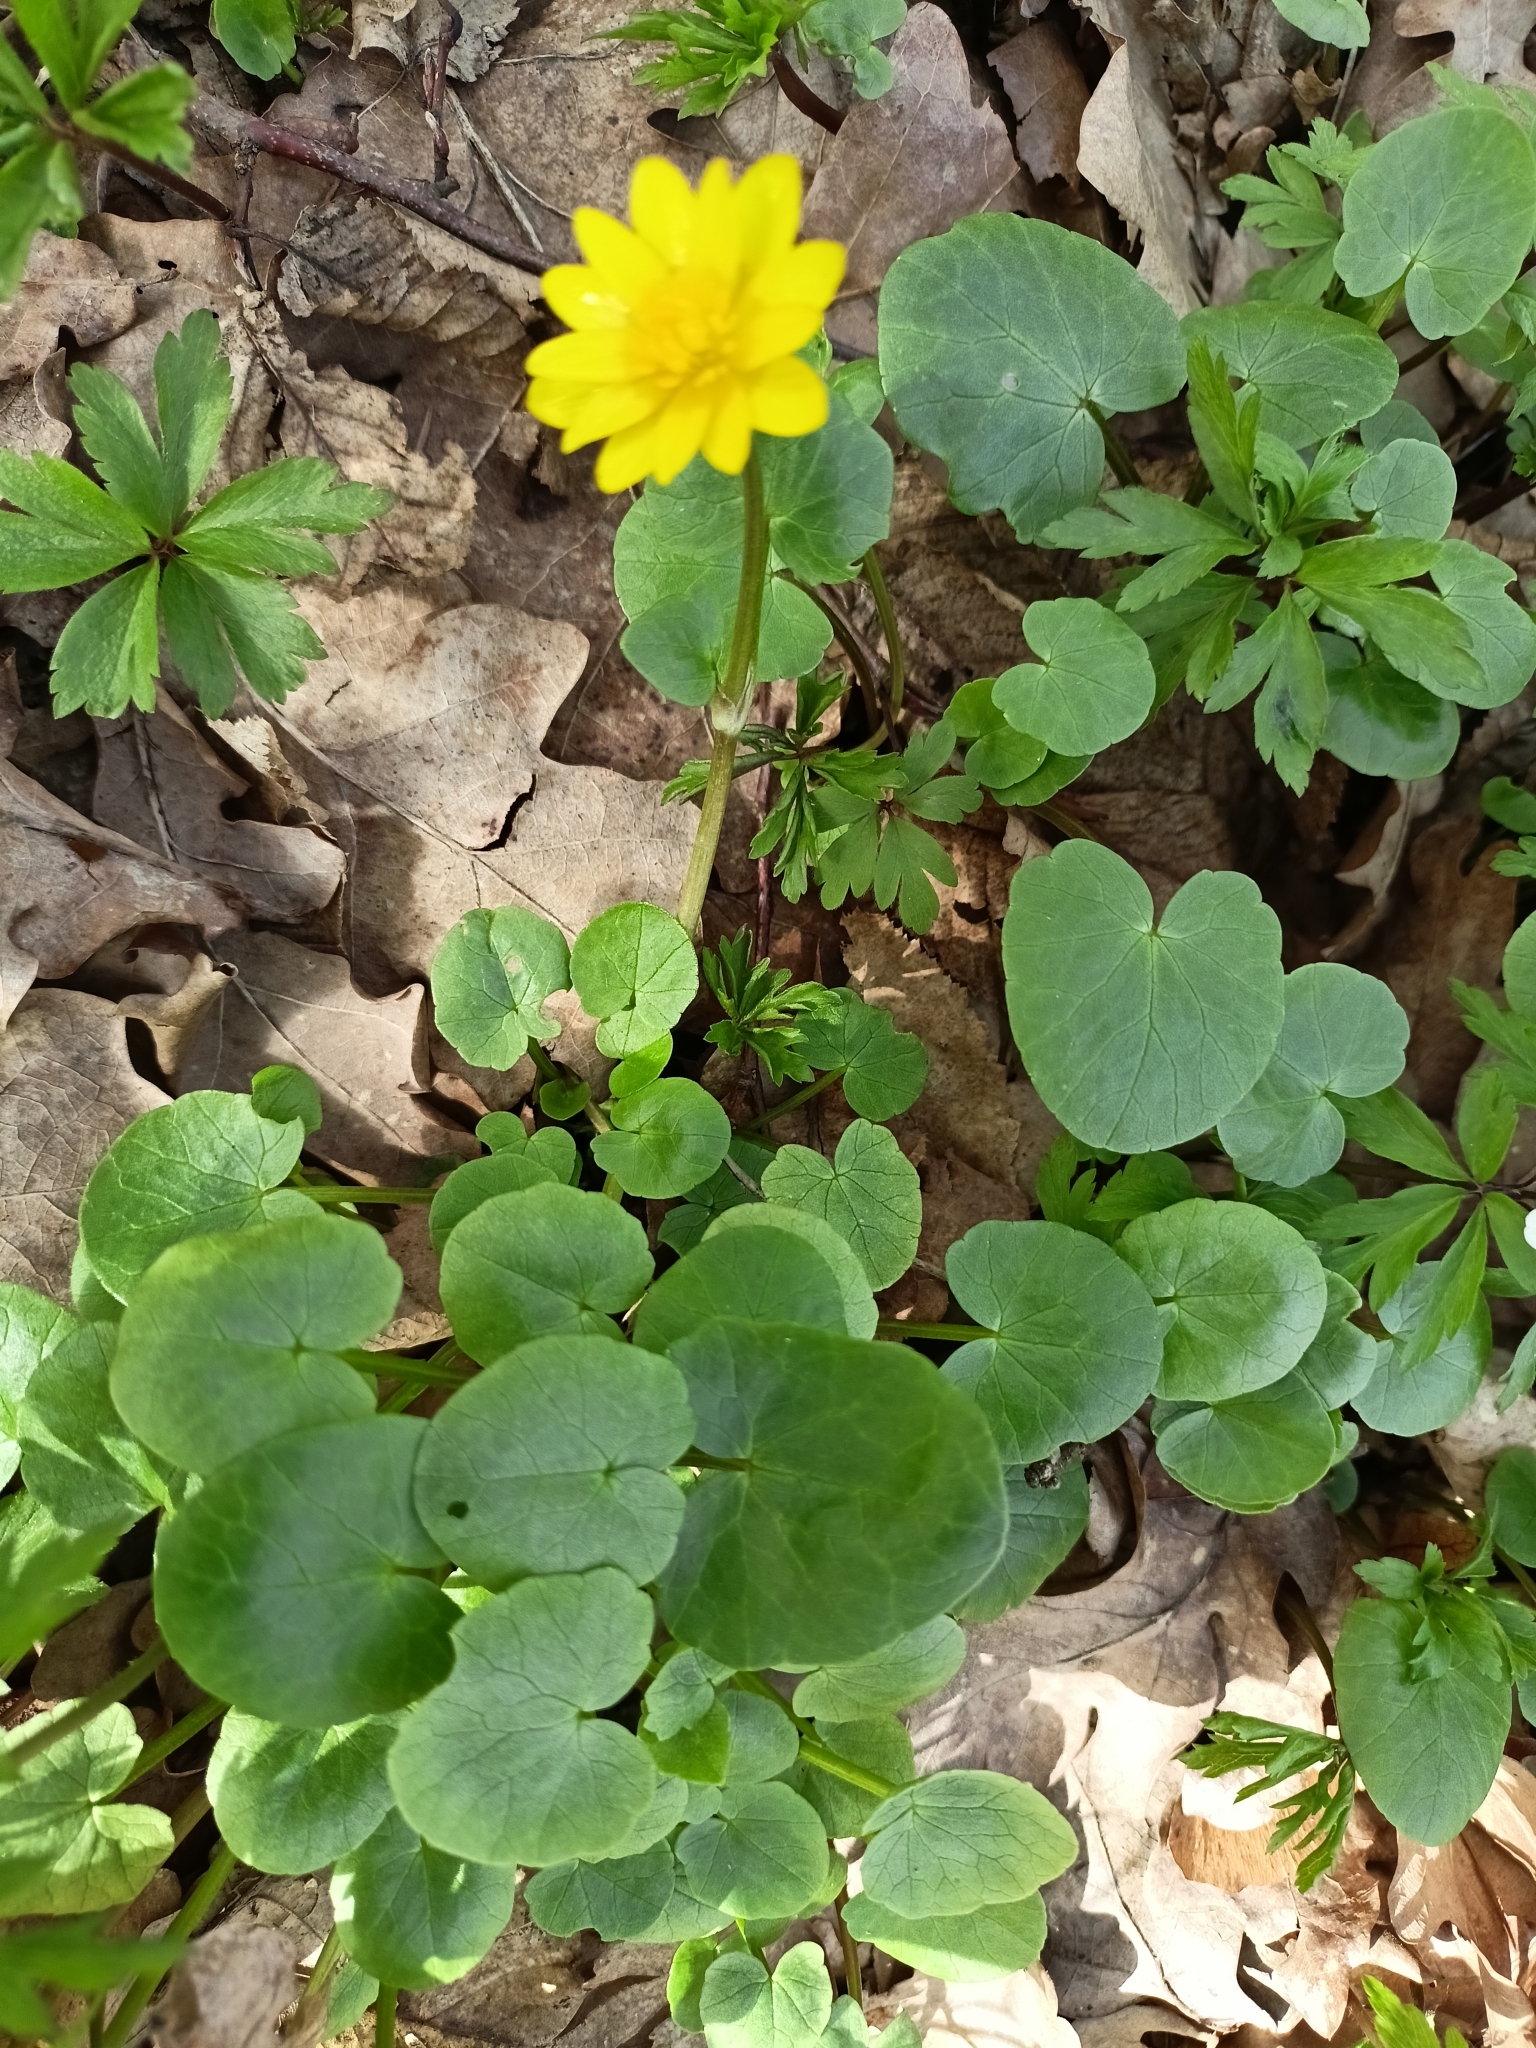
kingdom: Plantae
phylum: Tracheophyta
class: Magnoliopsida
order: Ranunculales
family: Ranunculaceae
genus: Ficaria
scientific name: Ficaria verna
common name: Lesser celandine
